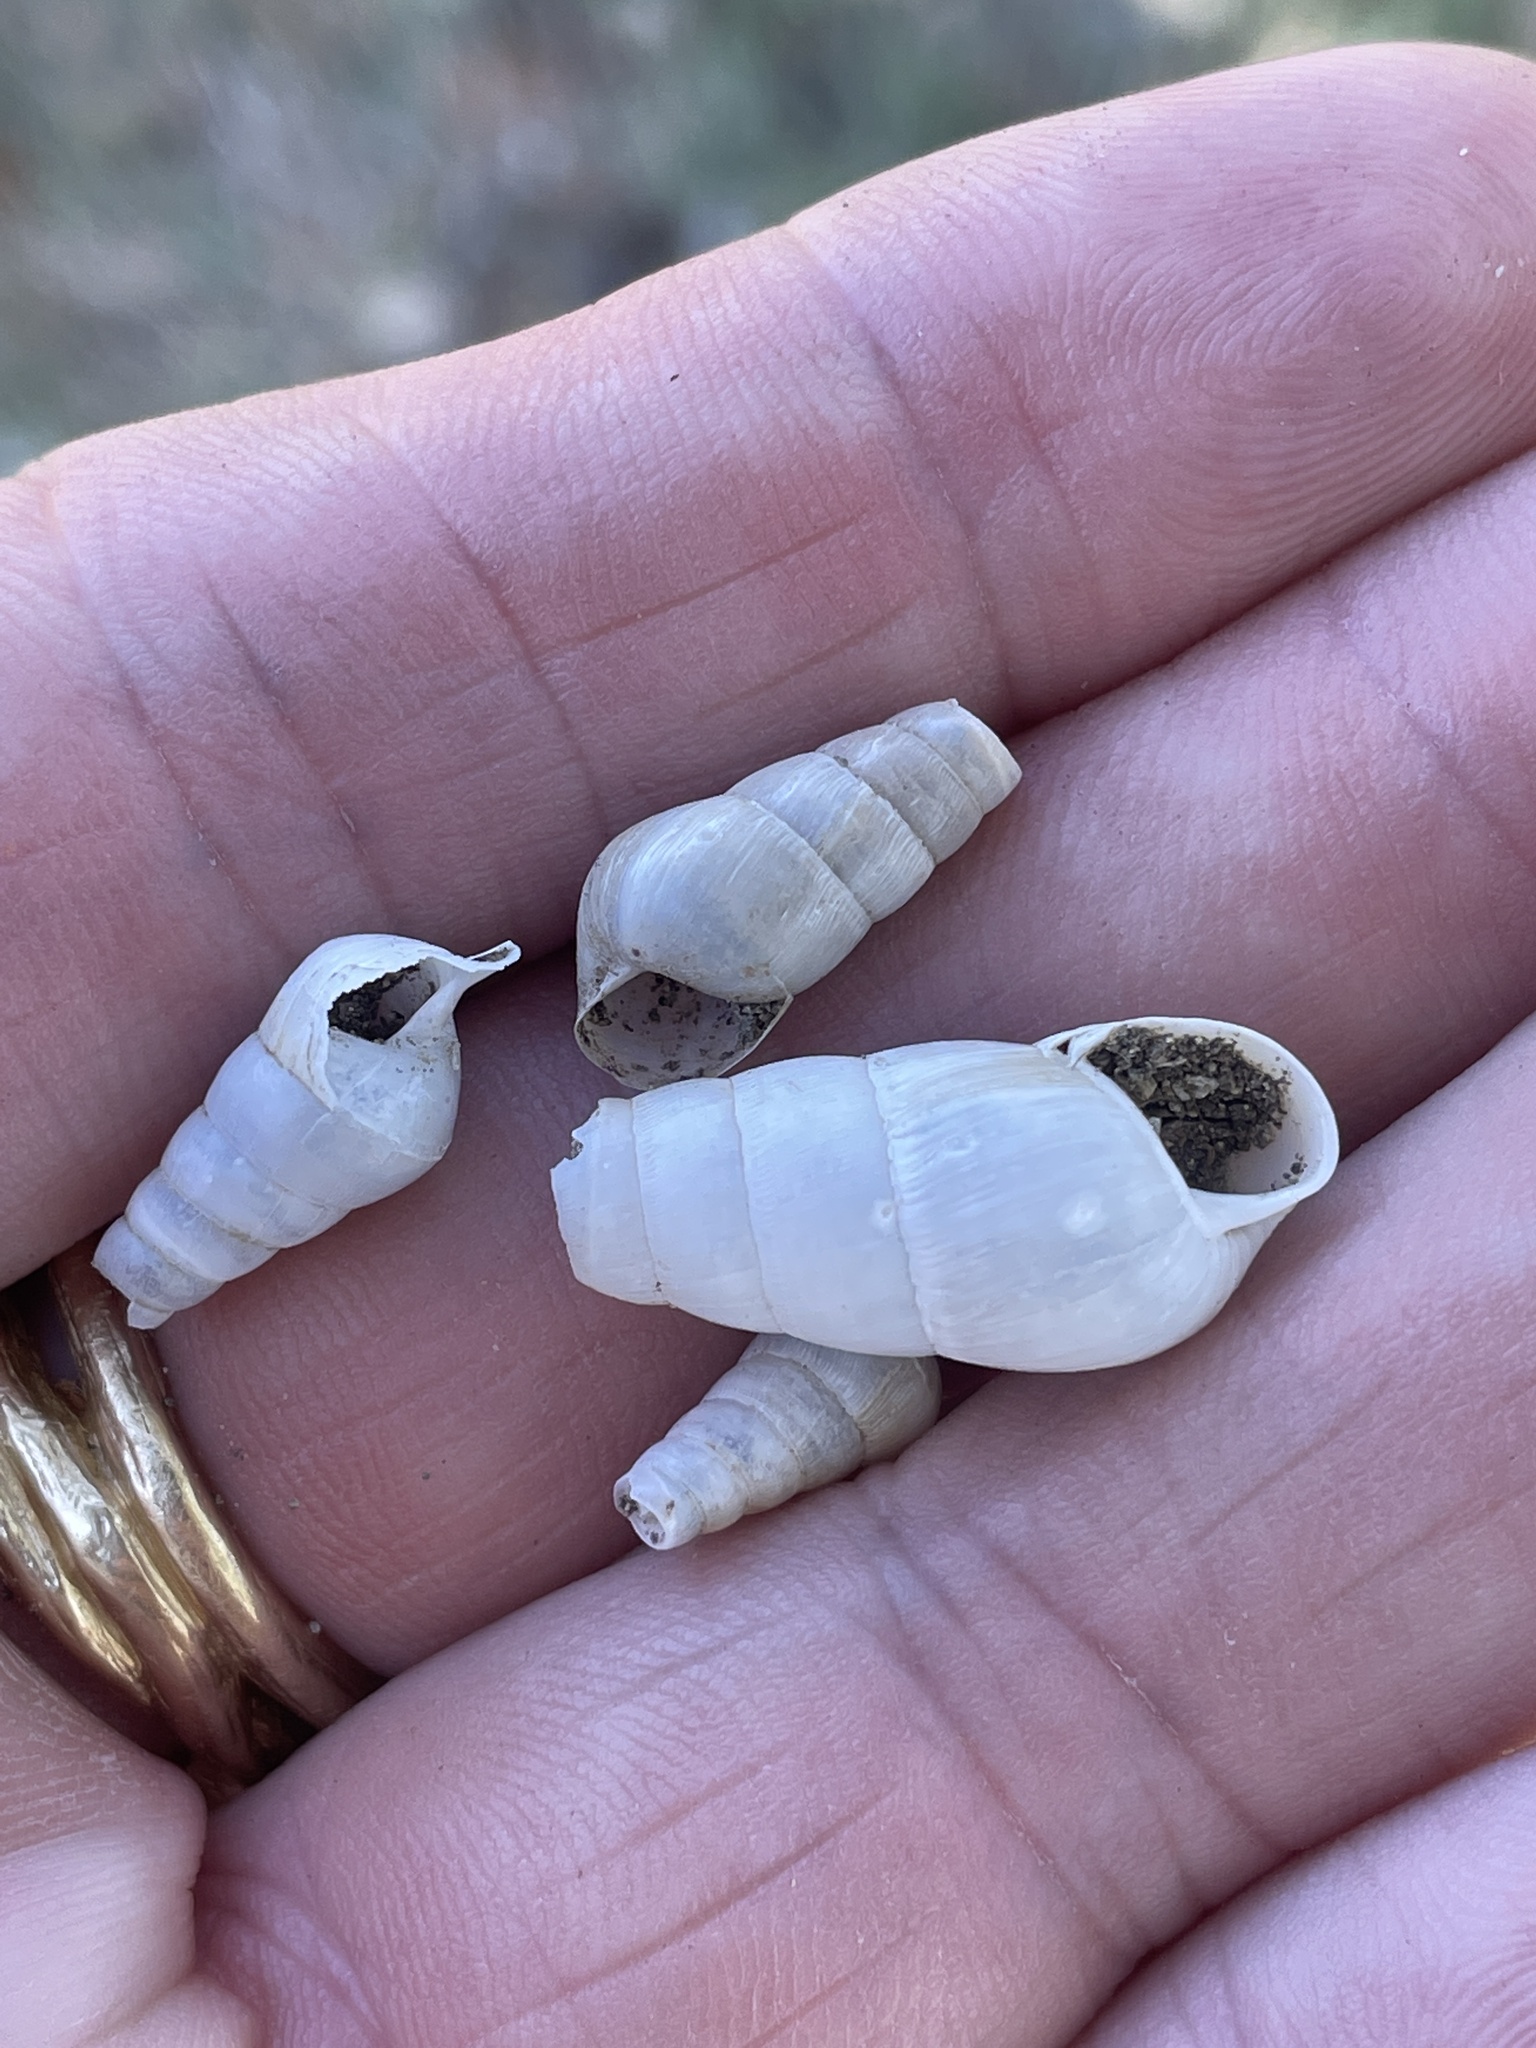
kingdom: Animalia
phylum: Mollusca
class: Gastropoda
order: Stylommatophora
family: Achatinidae
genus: Rumina
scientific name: Rumina decollata
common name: Decollate snail
